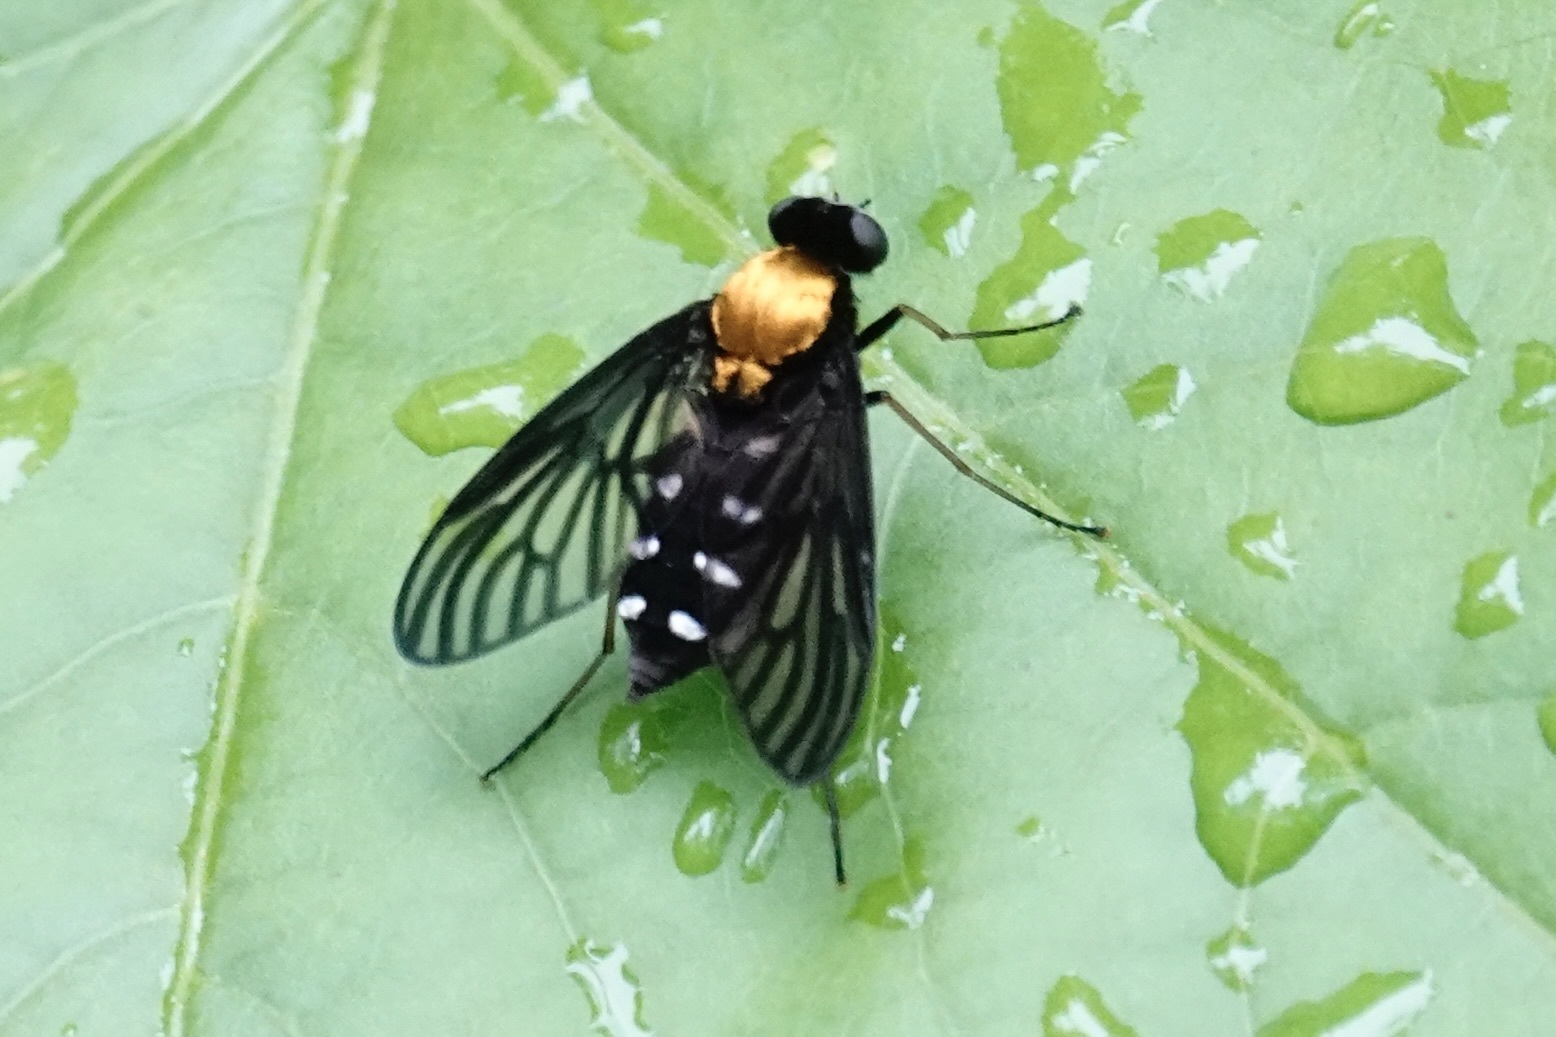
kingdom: Animalia
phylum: Arthropoda
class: Insecta
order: Diptera
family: Rhagionidae
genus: Chrysopilus
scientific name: Chrysopilus thoracicus
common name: Golden-backed snipe fly
